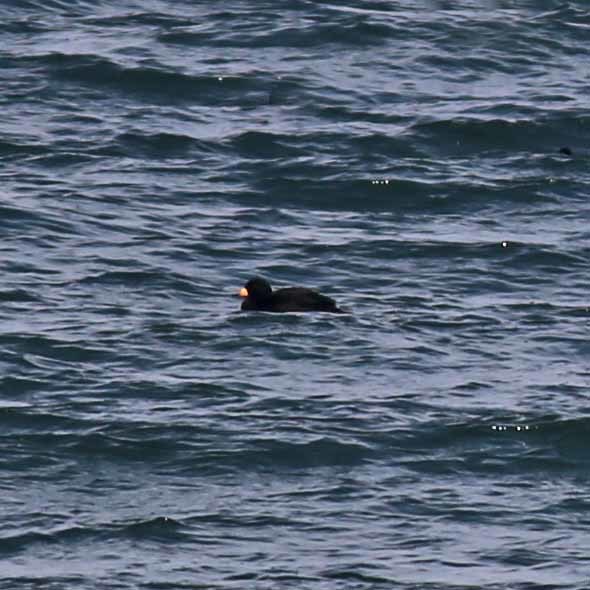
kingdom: Animalia
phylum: Chordata
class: Aves
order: Anseriformes
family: Anatidae
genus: Melanitta
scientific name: Melanitta americana
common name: Black scoter
